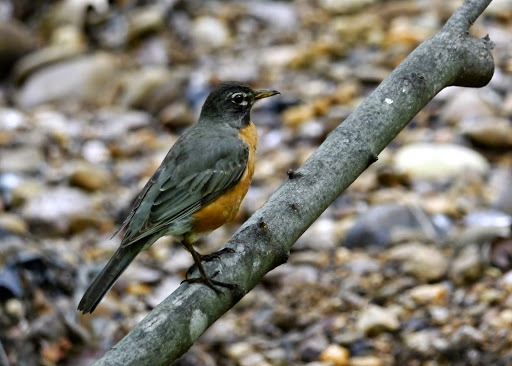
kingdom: Animalia
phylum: Chordata
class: Aves
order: Passeriformes
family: Turdidae
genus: Turdus
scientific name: Turdus migratorius
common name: American robin
